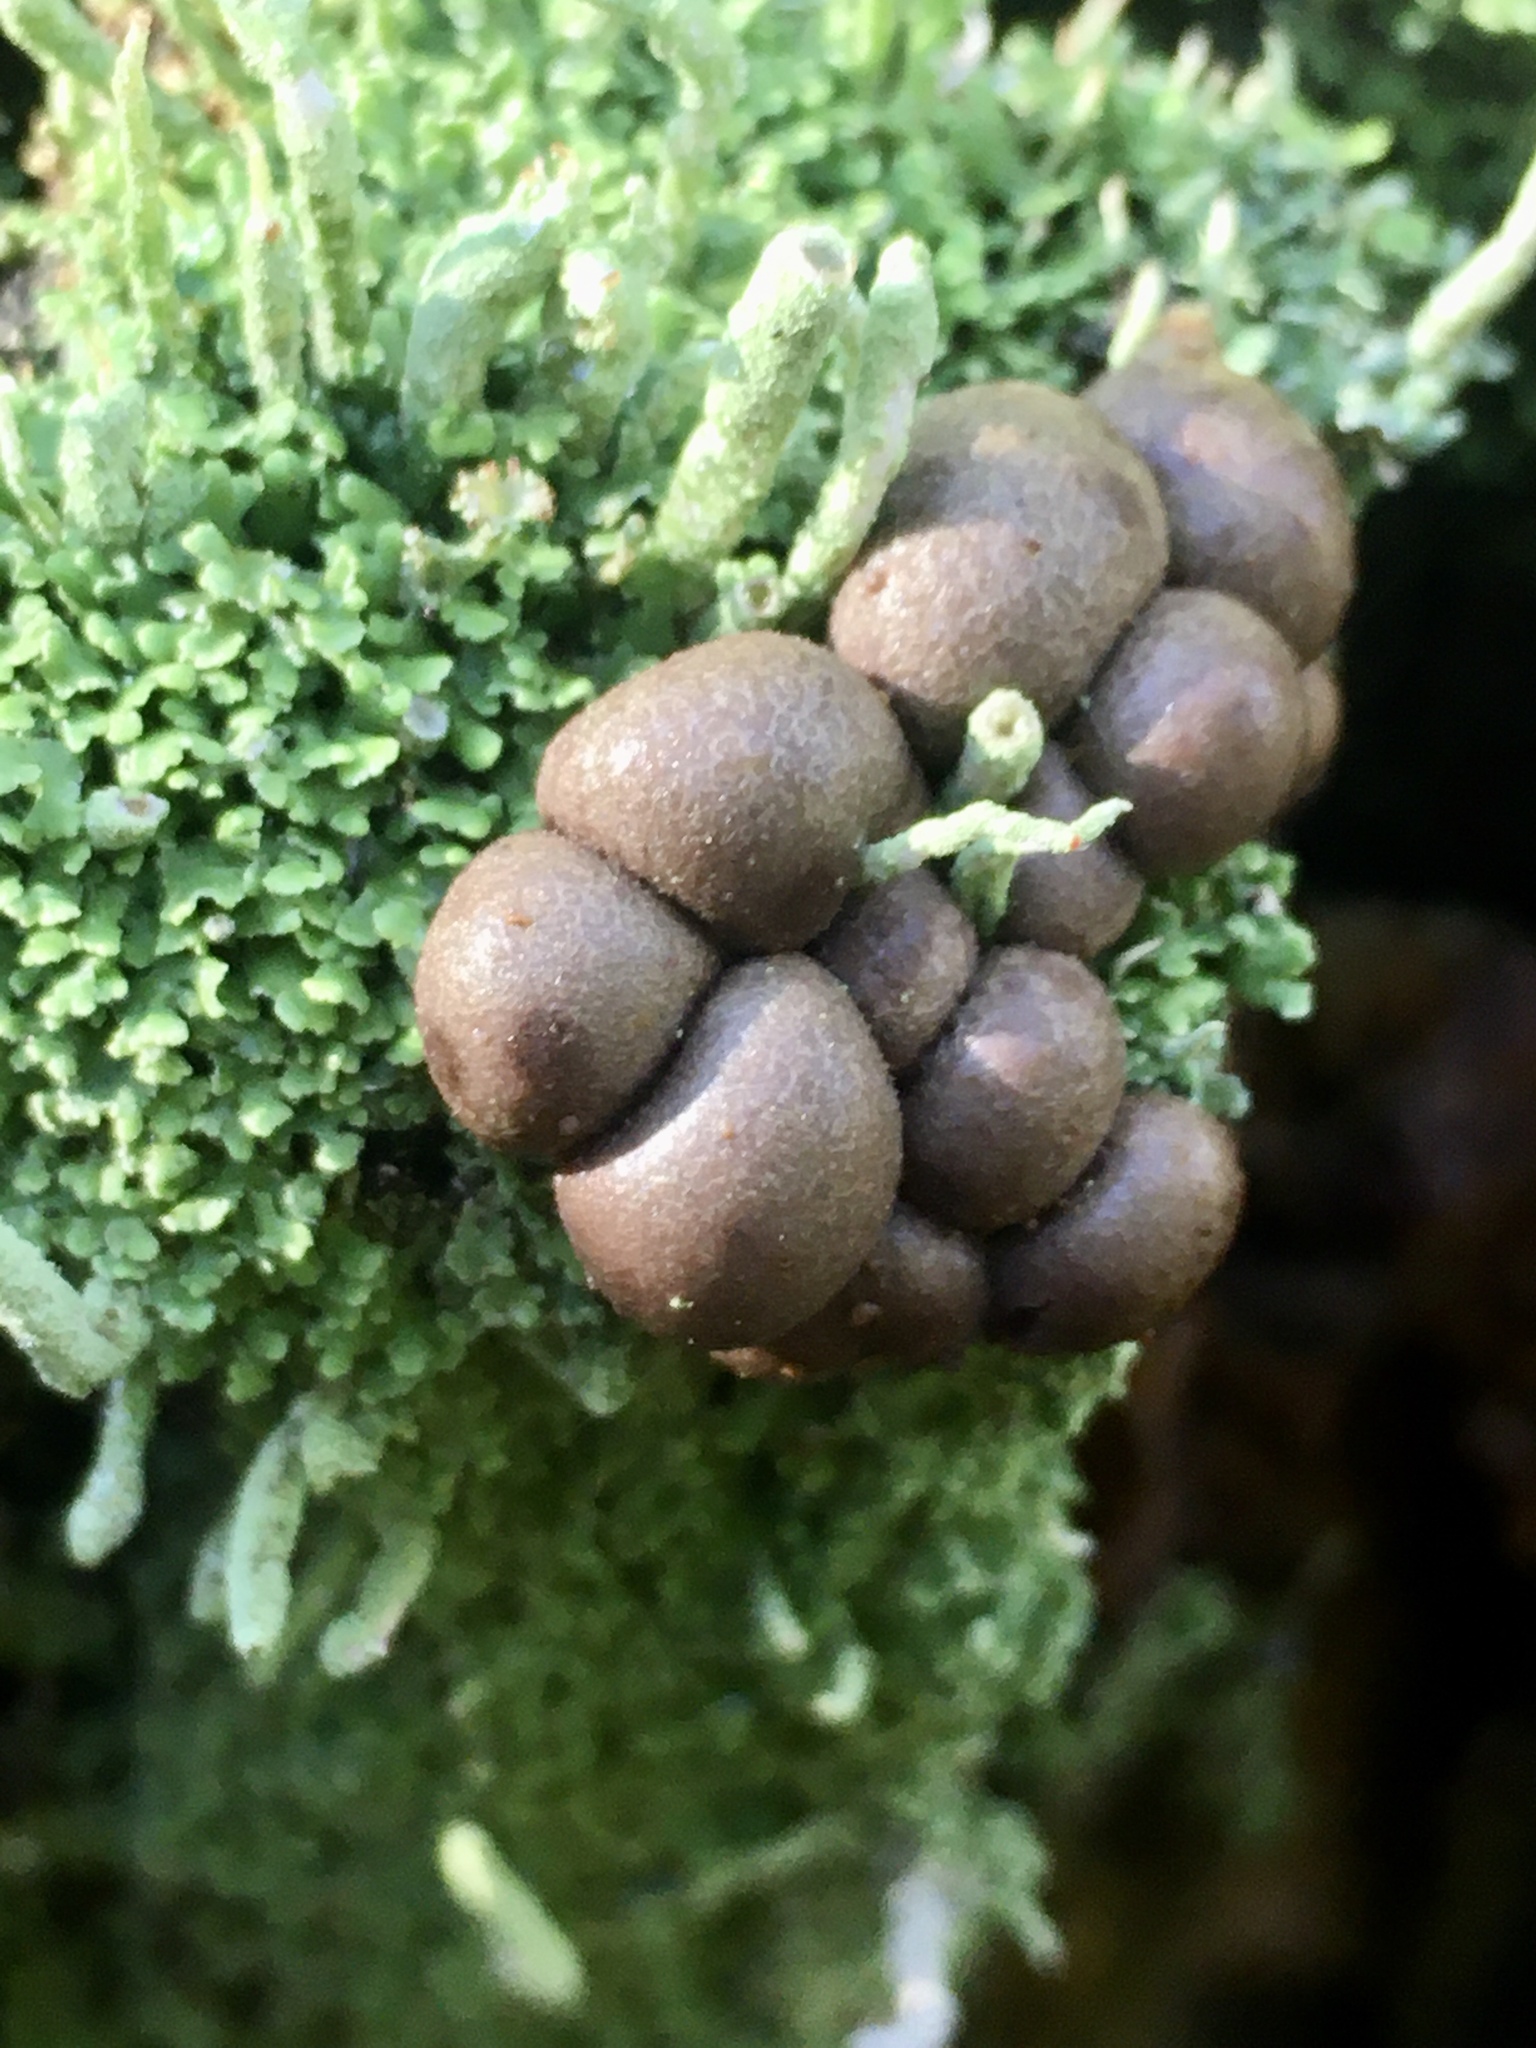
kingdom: Protozoa
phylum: Mycetozoa
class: Myxomycetes
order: Cribrariales
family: Tubiferaceae
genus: Lycogala
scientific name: Lycogala epidendrum
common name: Wolf's milk
